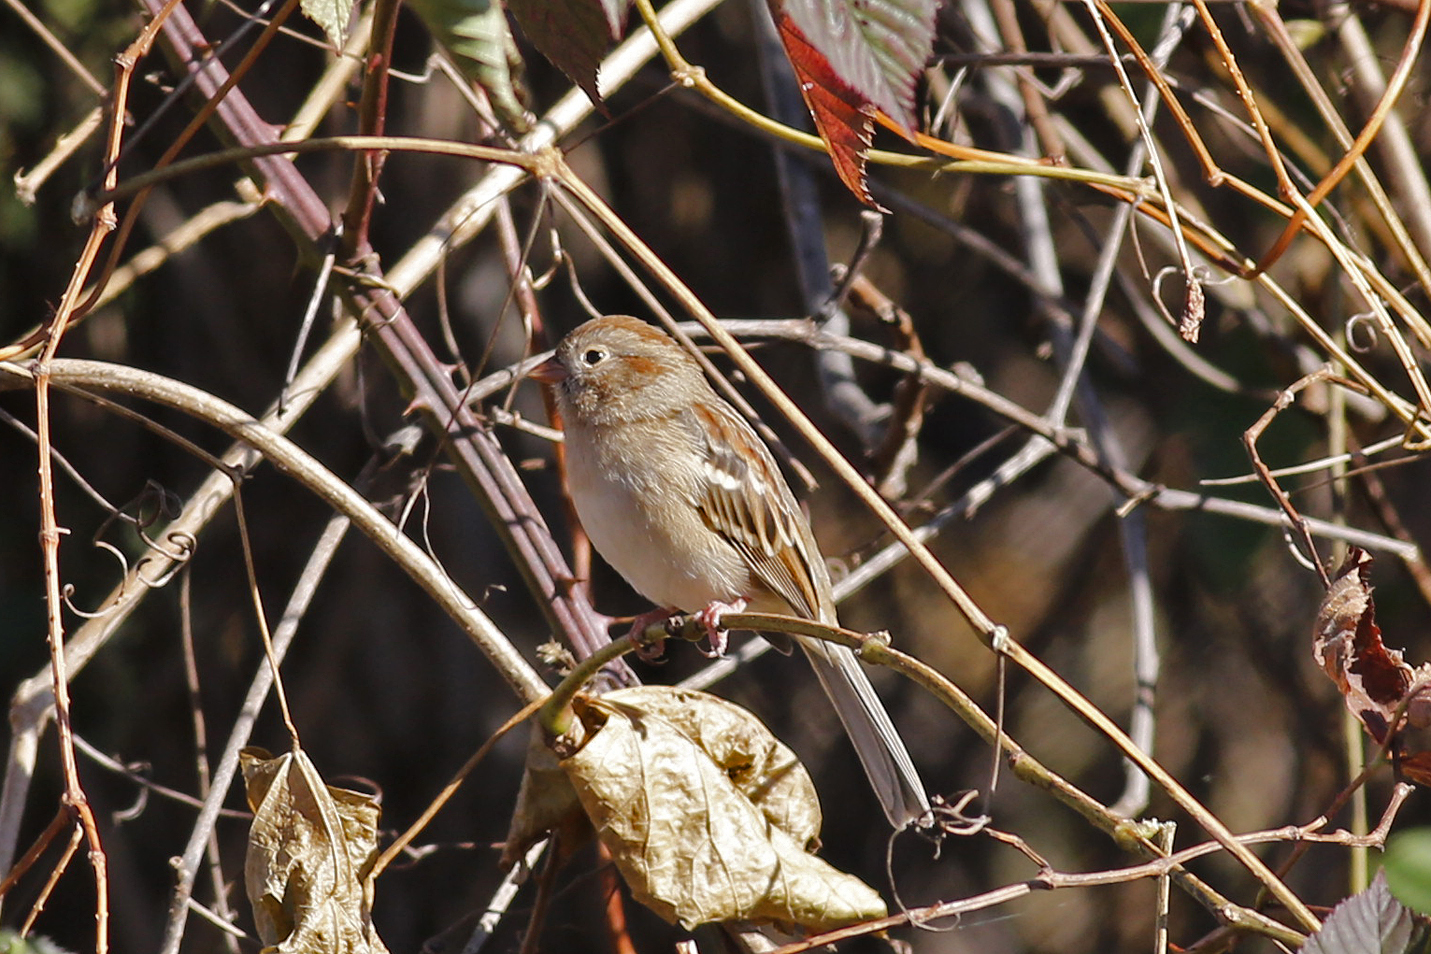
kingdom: Animalia
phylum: Chordata
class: Aves
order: Passeriformes
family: Passerellidae
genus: Spizella
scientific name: Spizella pusilla
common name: Field sparrow
